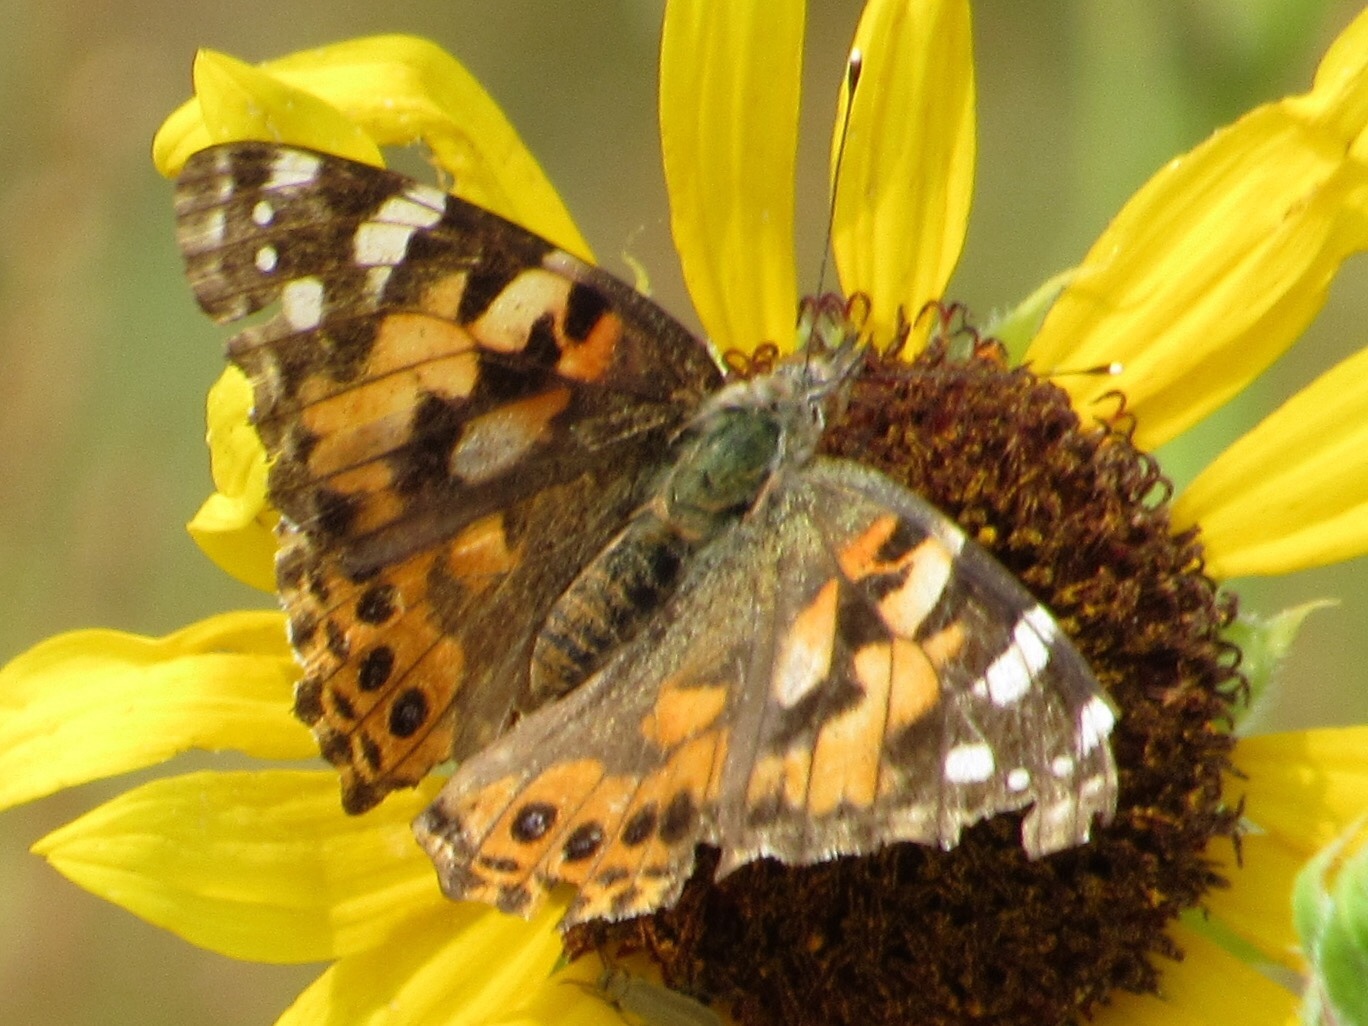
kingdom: Animalia
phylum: Arthropoda
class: Insecta
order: Lepidoptera
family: Nymphalidae
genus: Vanessa
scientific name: Vanessa cardui
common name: Painted lady
